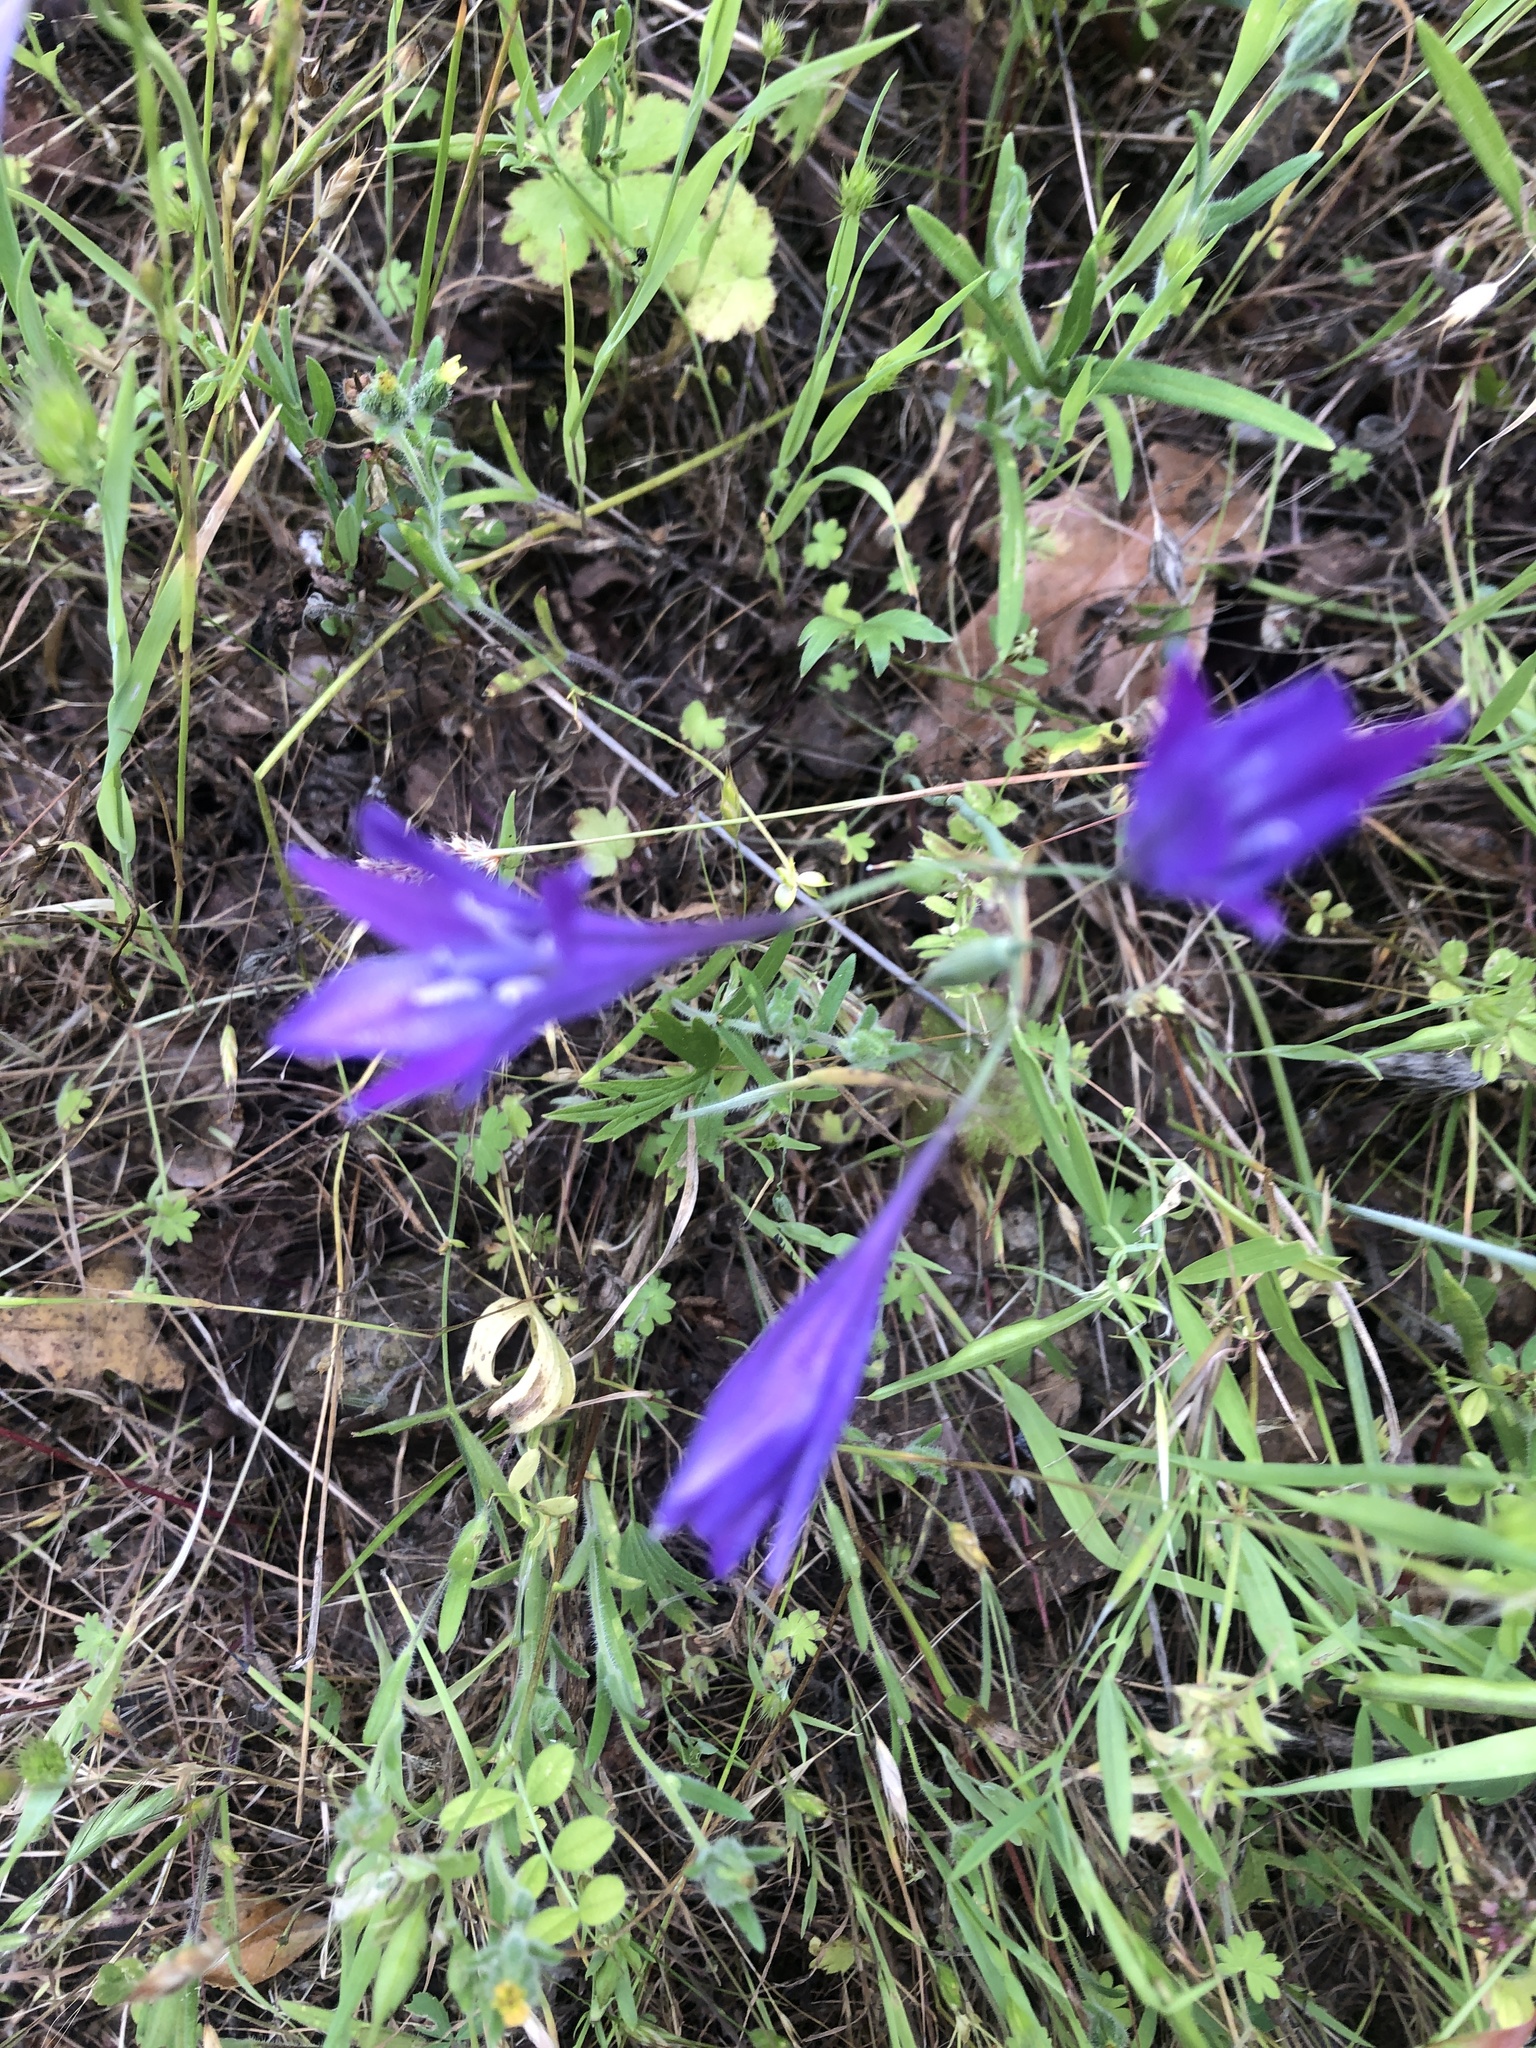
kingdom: Plantae
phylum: Tracheophyta
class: Liliopsida
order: Asparagales
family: Asparagaceae
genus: Triteleia
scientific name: Triteleia laxa
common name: Triplet-lily
